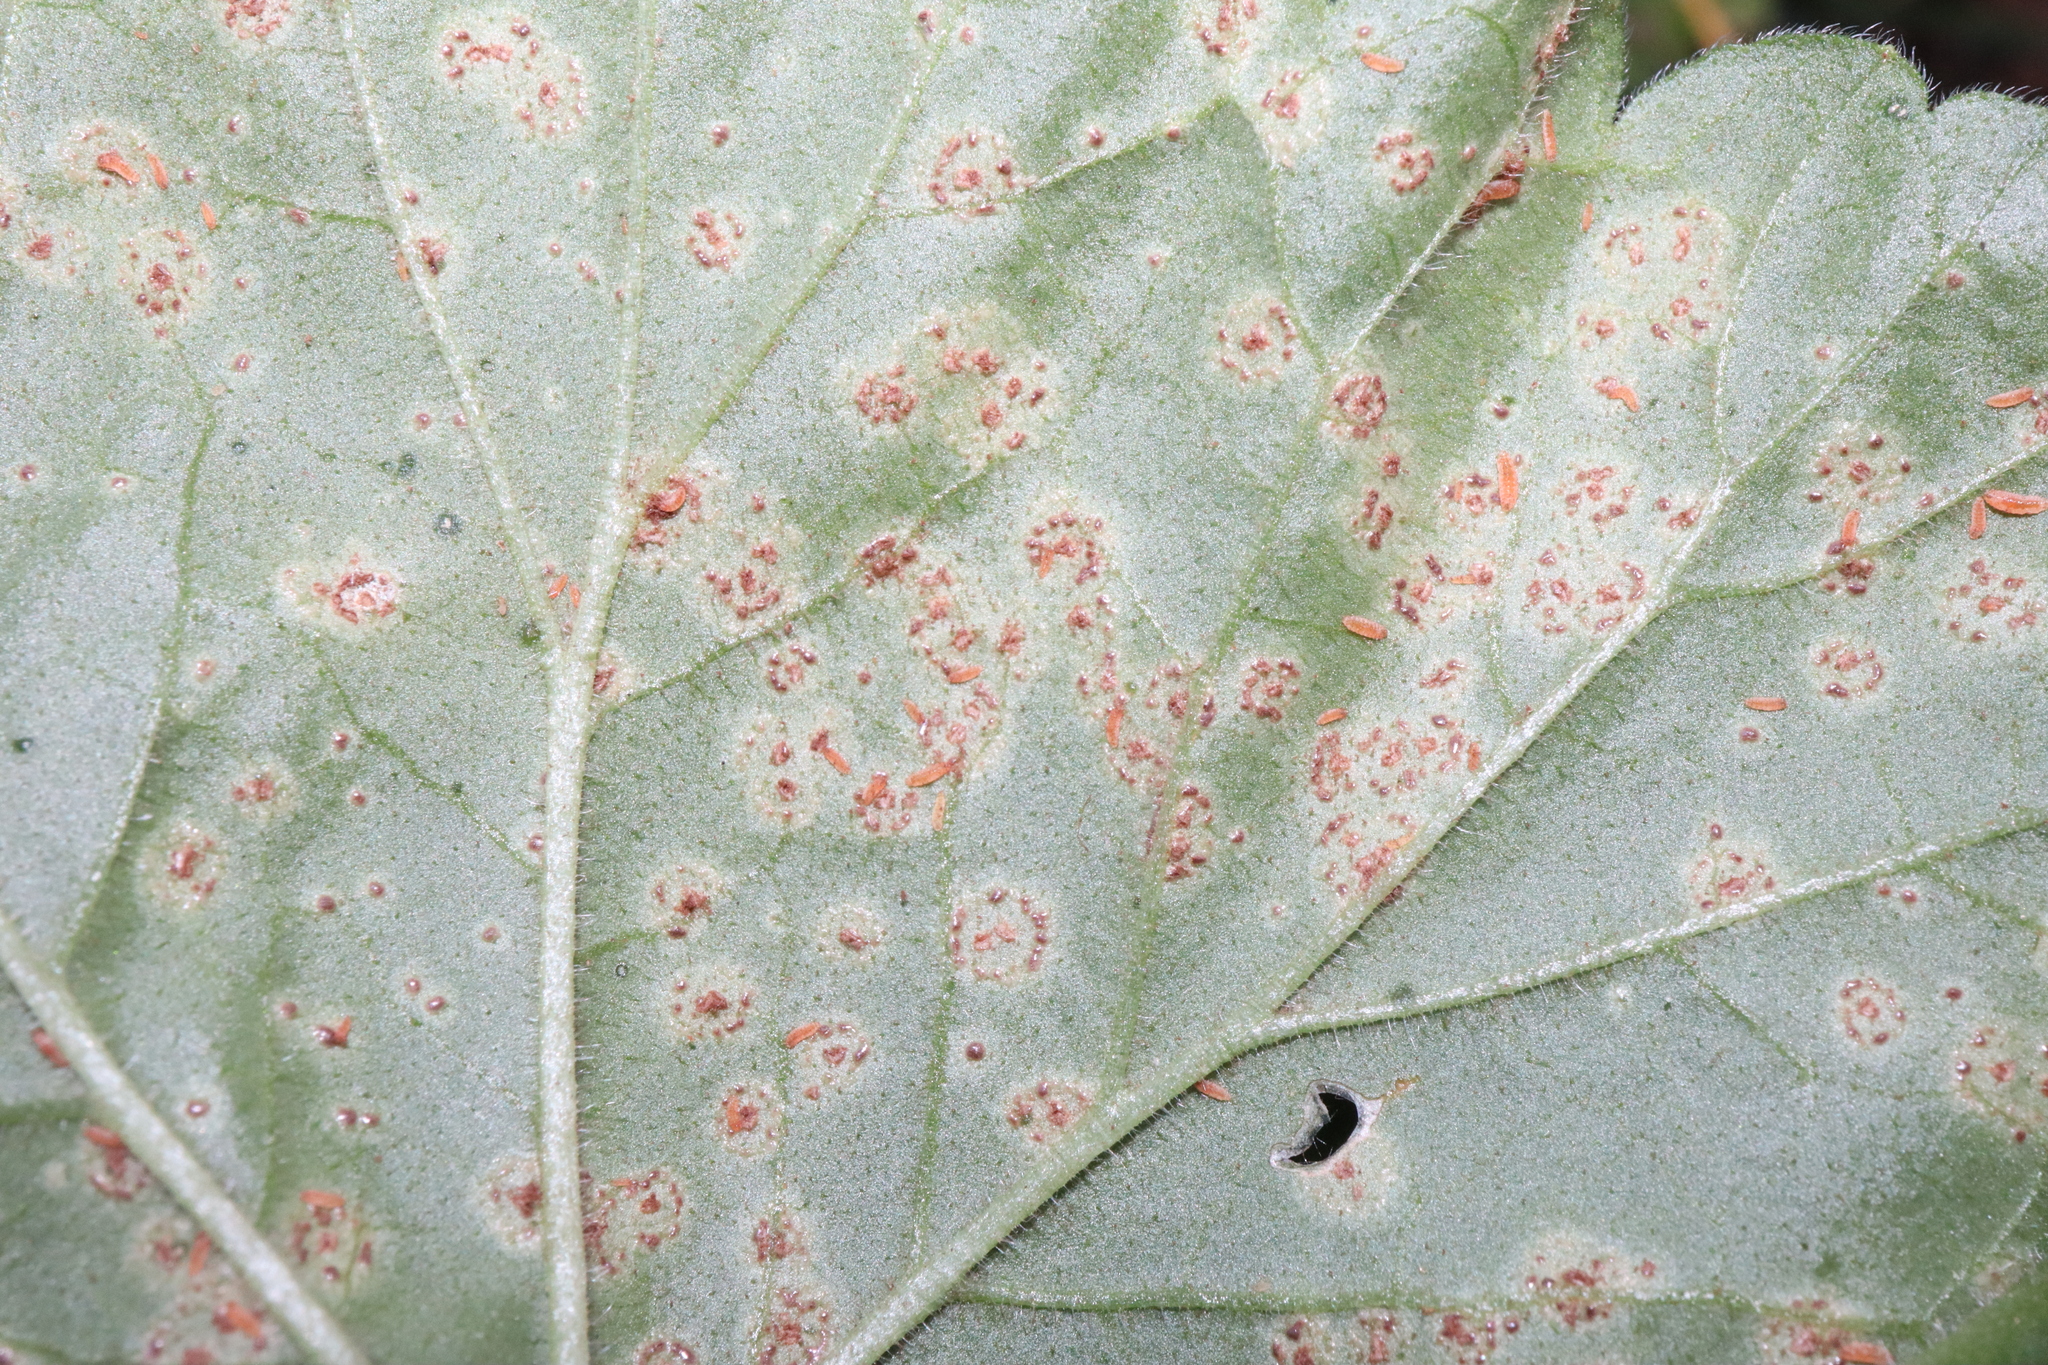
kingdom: Fungi
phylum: Basidiomycota
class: Pucciniomycetes
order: Pucciniales
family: Pucciniaceae
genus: Puccinia
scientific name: Puccinia pelargonii-zonalis
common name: Rust of pelargonium
